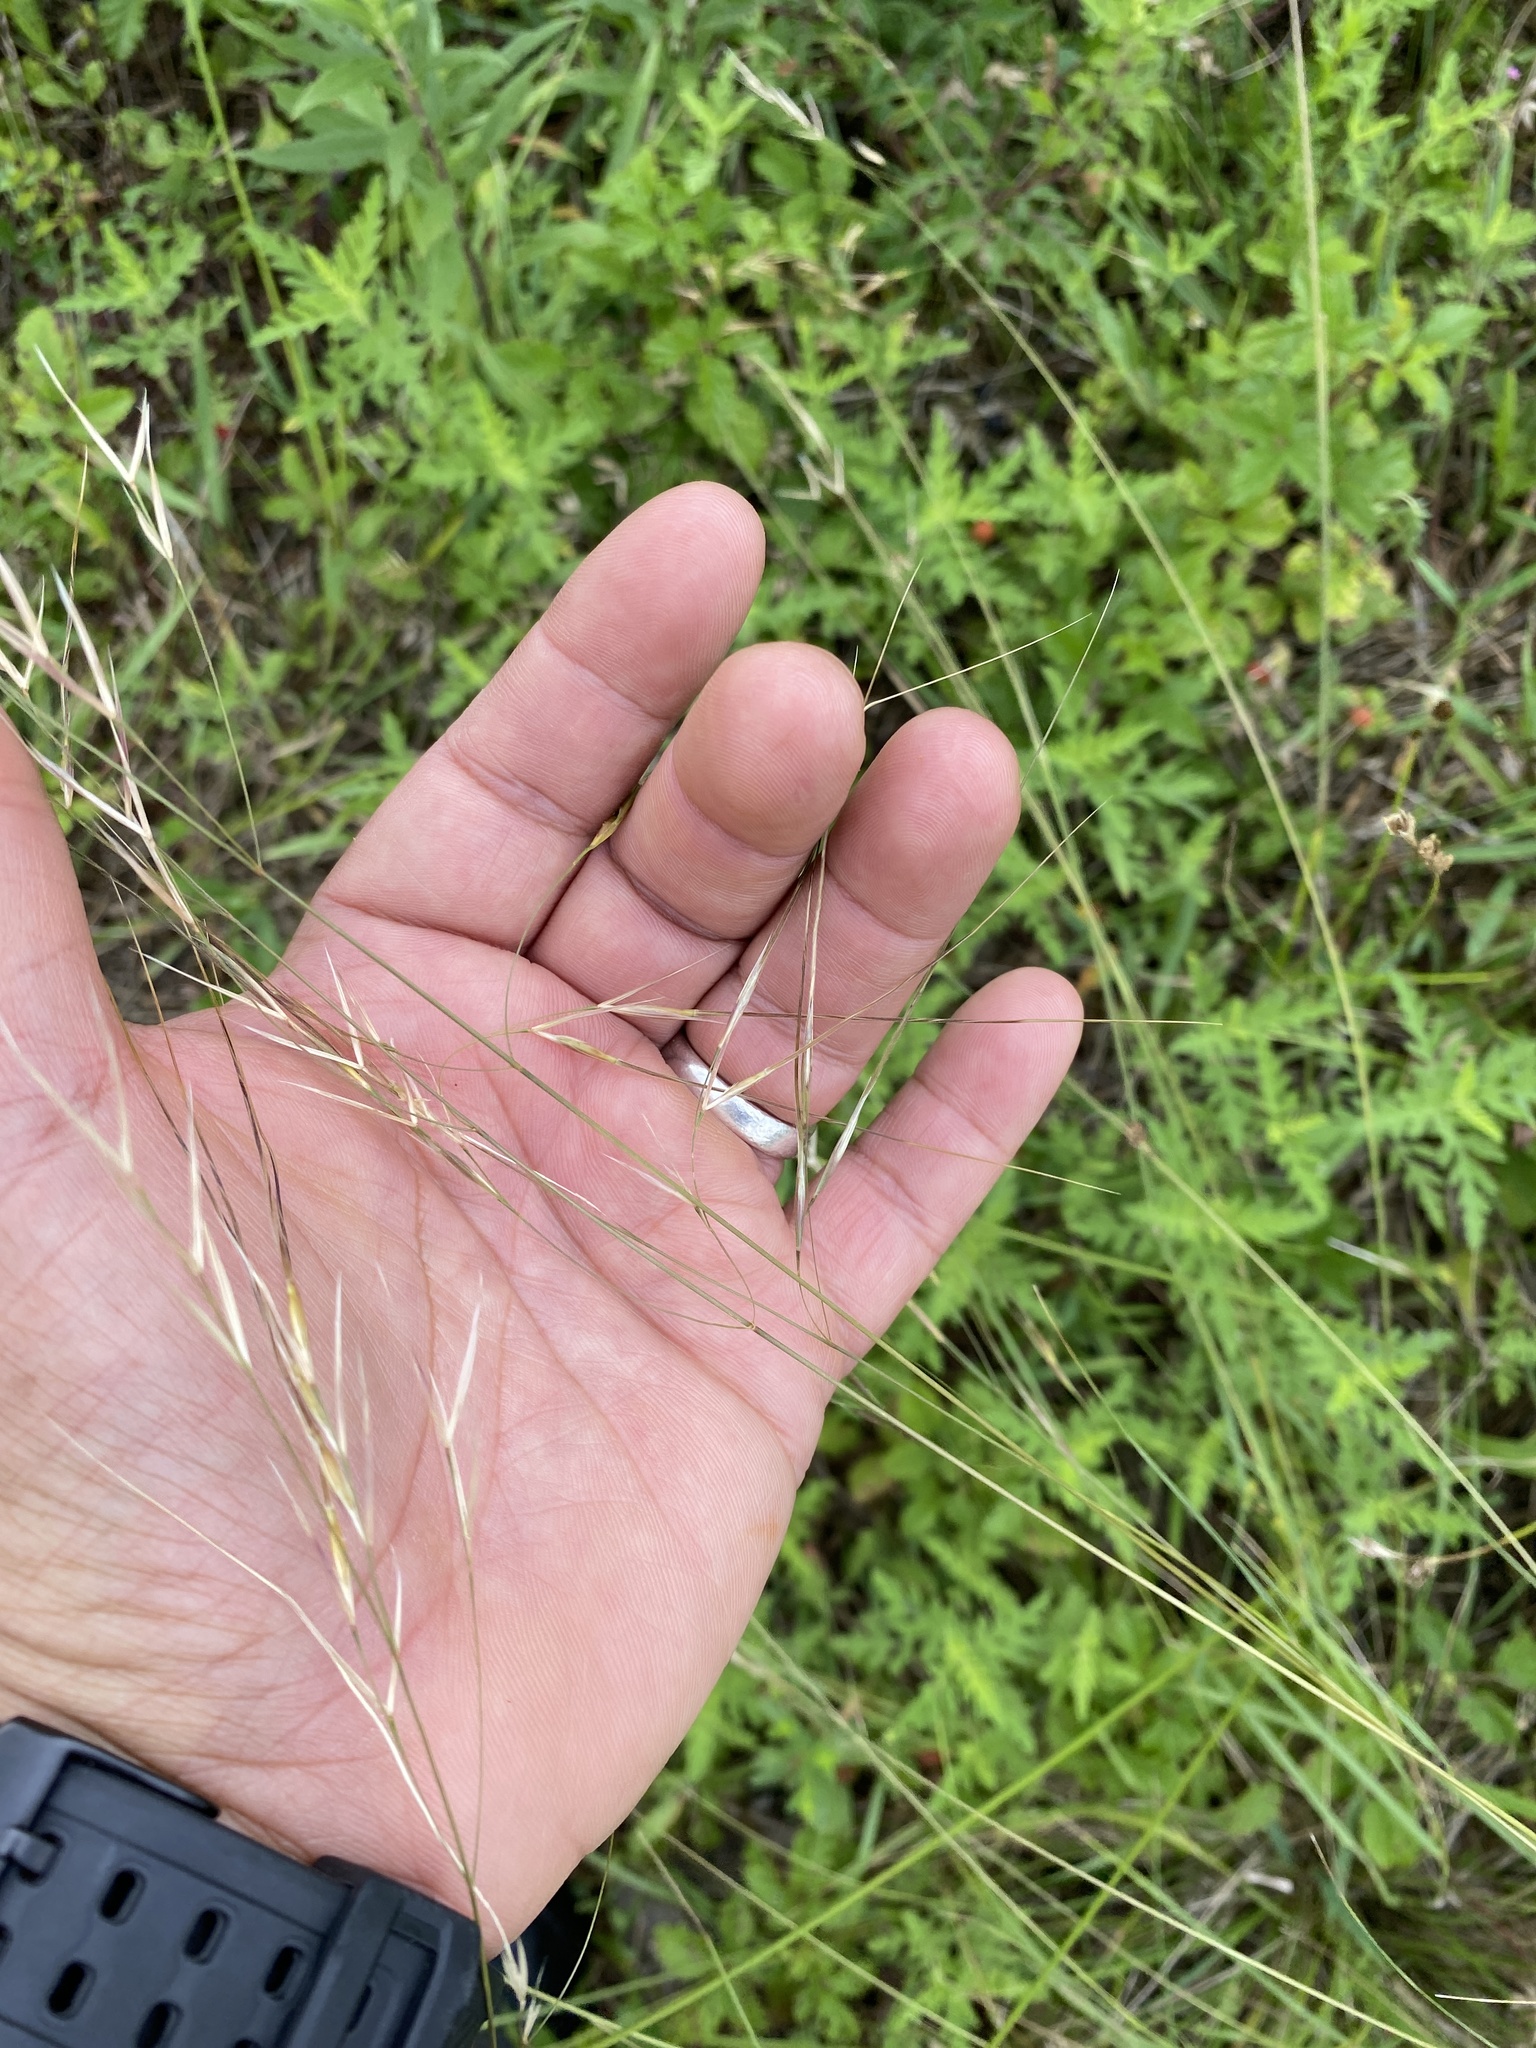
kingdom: Plantae
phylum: Tracheophyta
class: Liliopsida
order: Poales
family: Poaceae
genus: Nassella
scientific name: Nassella leucotricha
